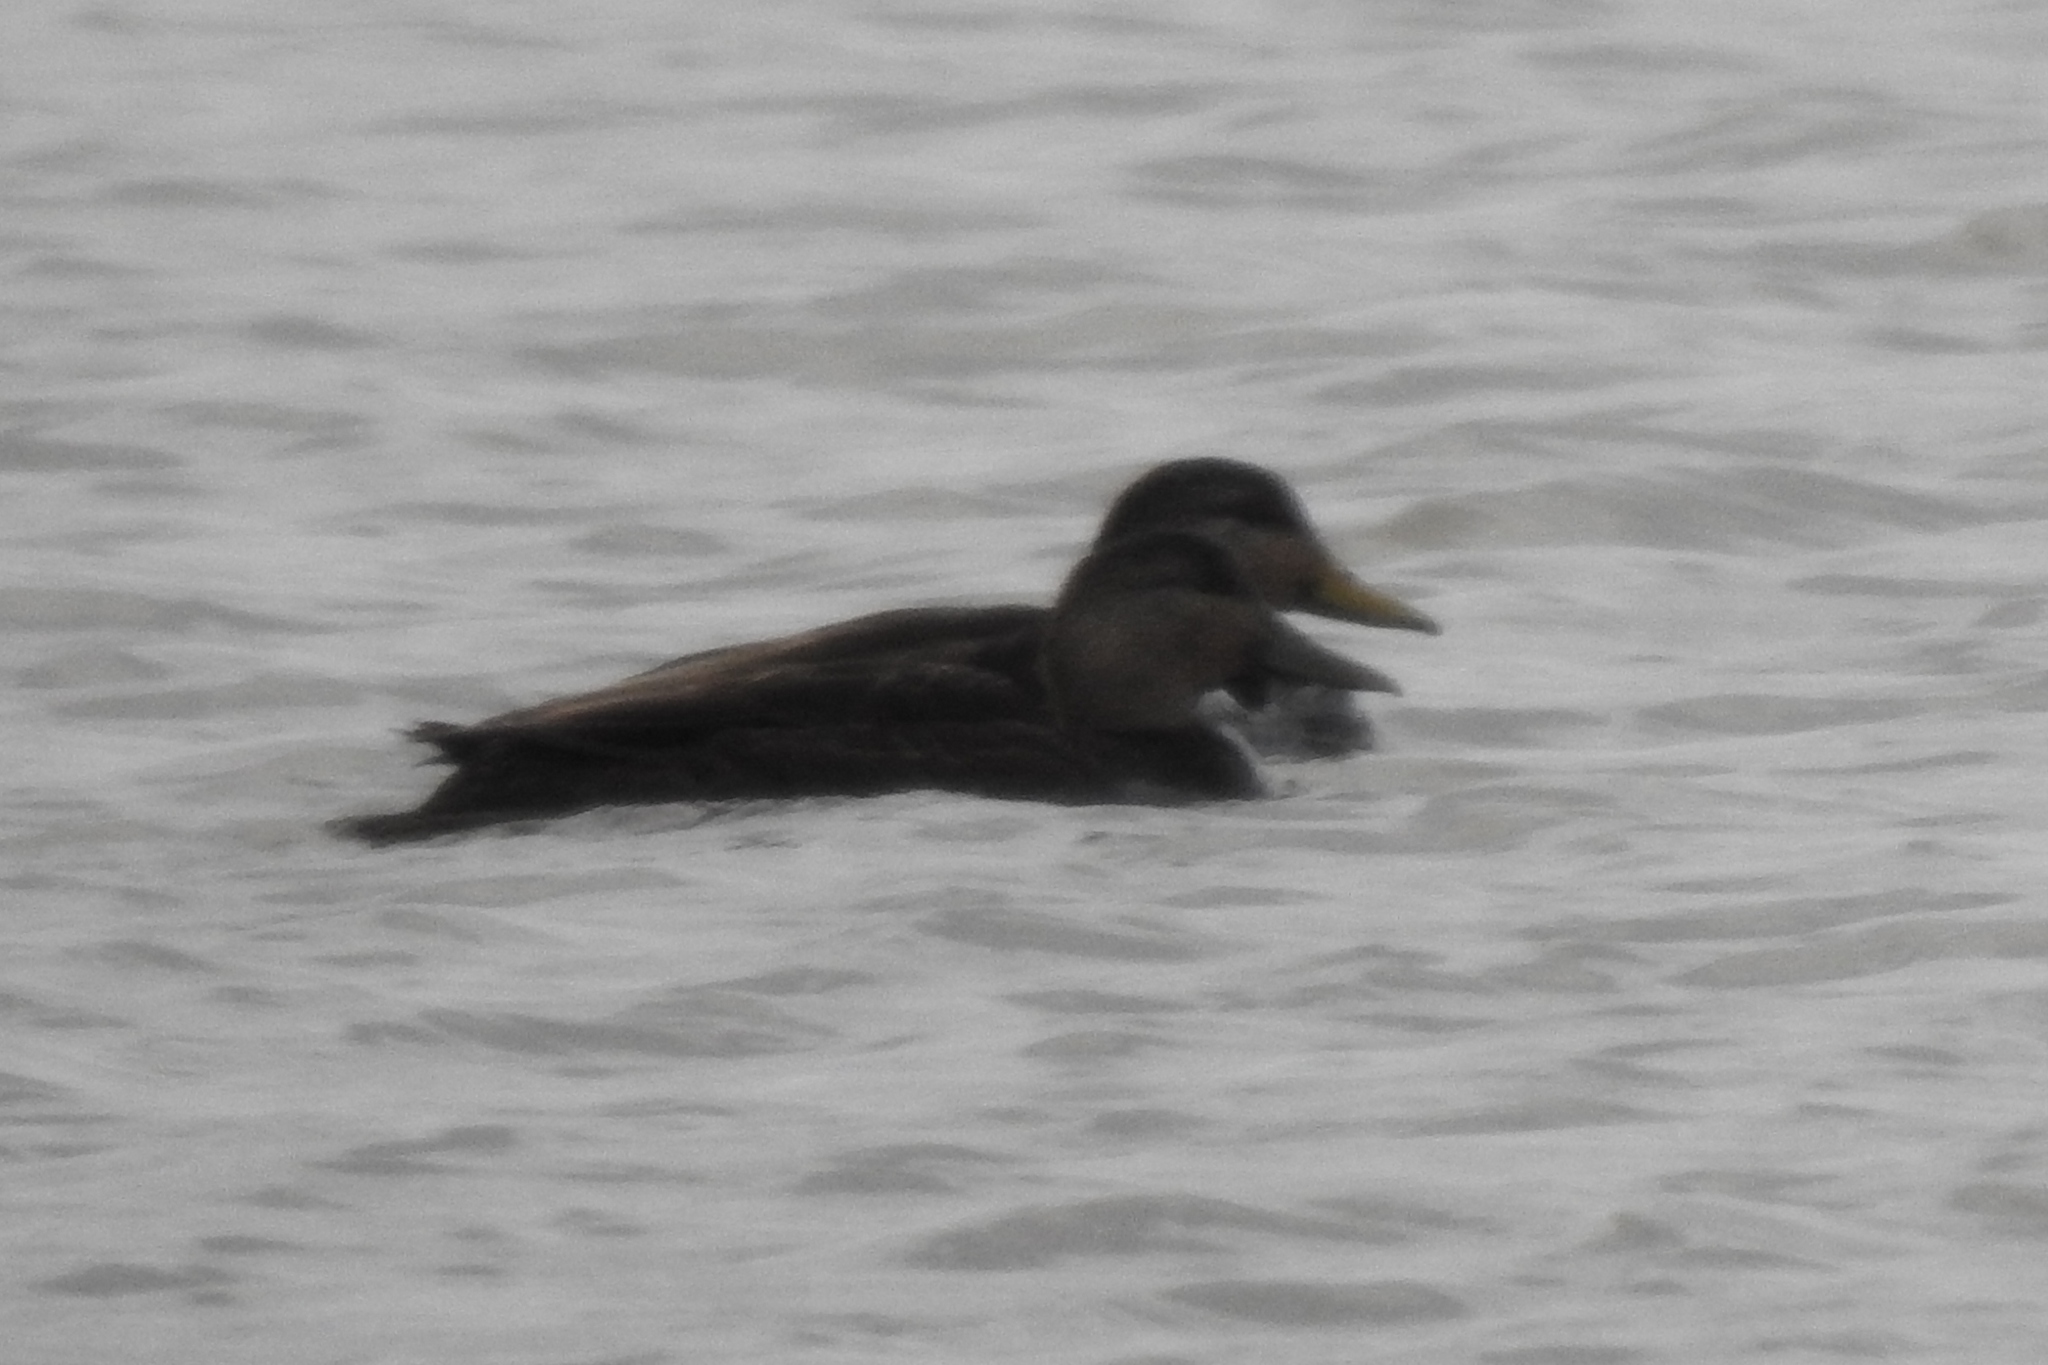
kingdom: Animalia
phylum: Chordata
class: Aves
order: Anseriformes
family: Anatidae
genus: Anas
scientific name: Anas rubripes
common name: American black duck
